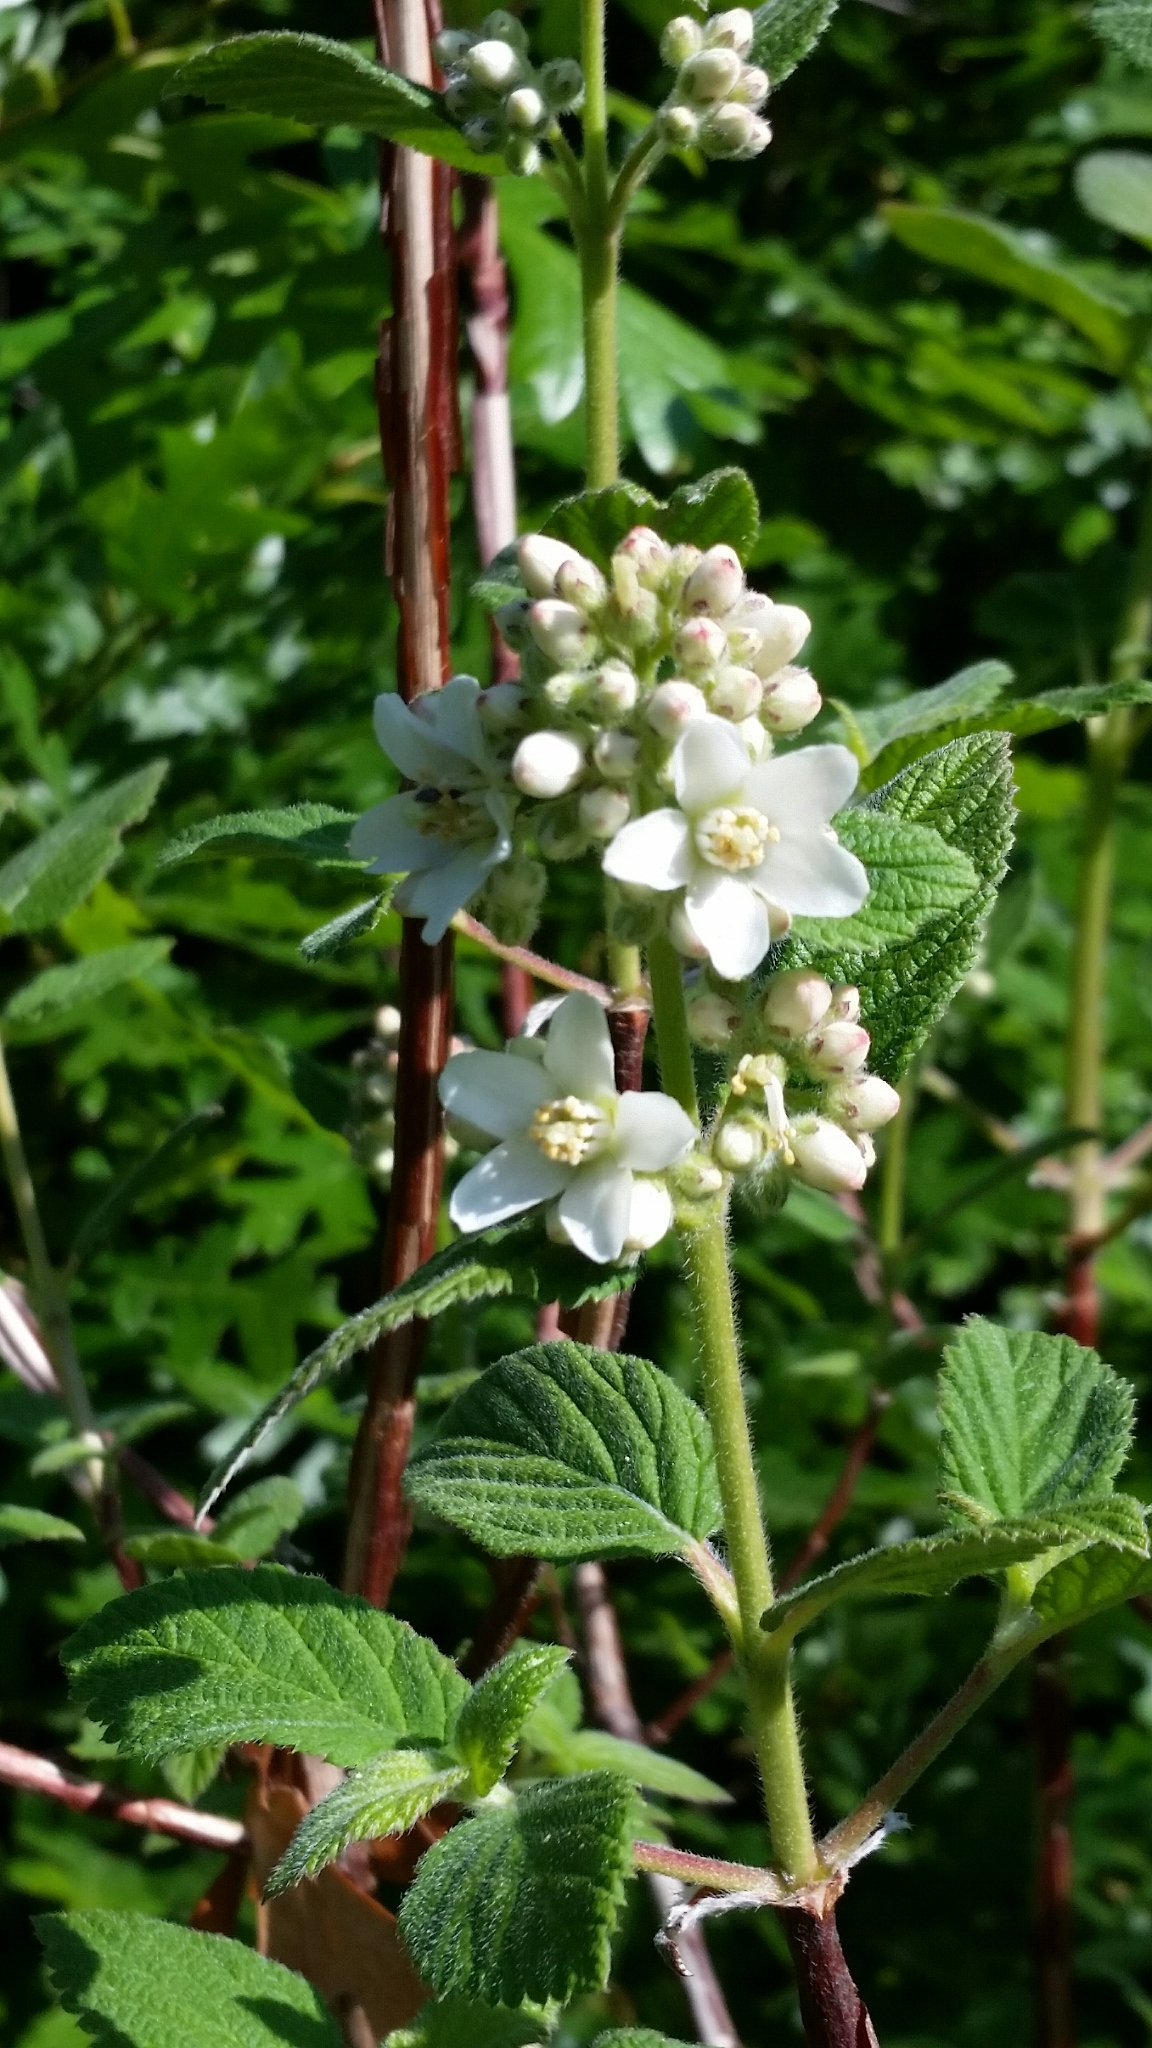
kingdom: Plantae
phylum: Tracheophyta
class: Magnoliopsida
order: Cornales
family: Hydrangeaceae
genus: Jamesia
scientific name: Jamesia americana
